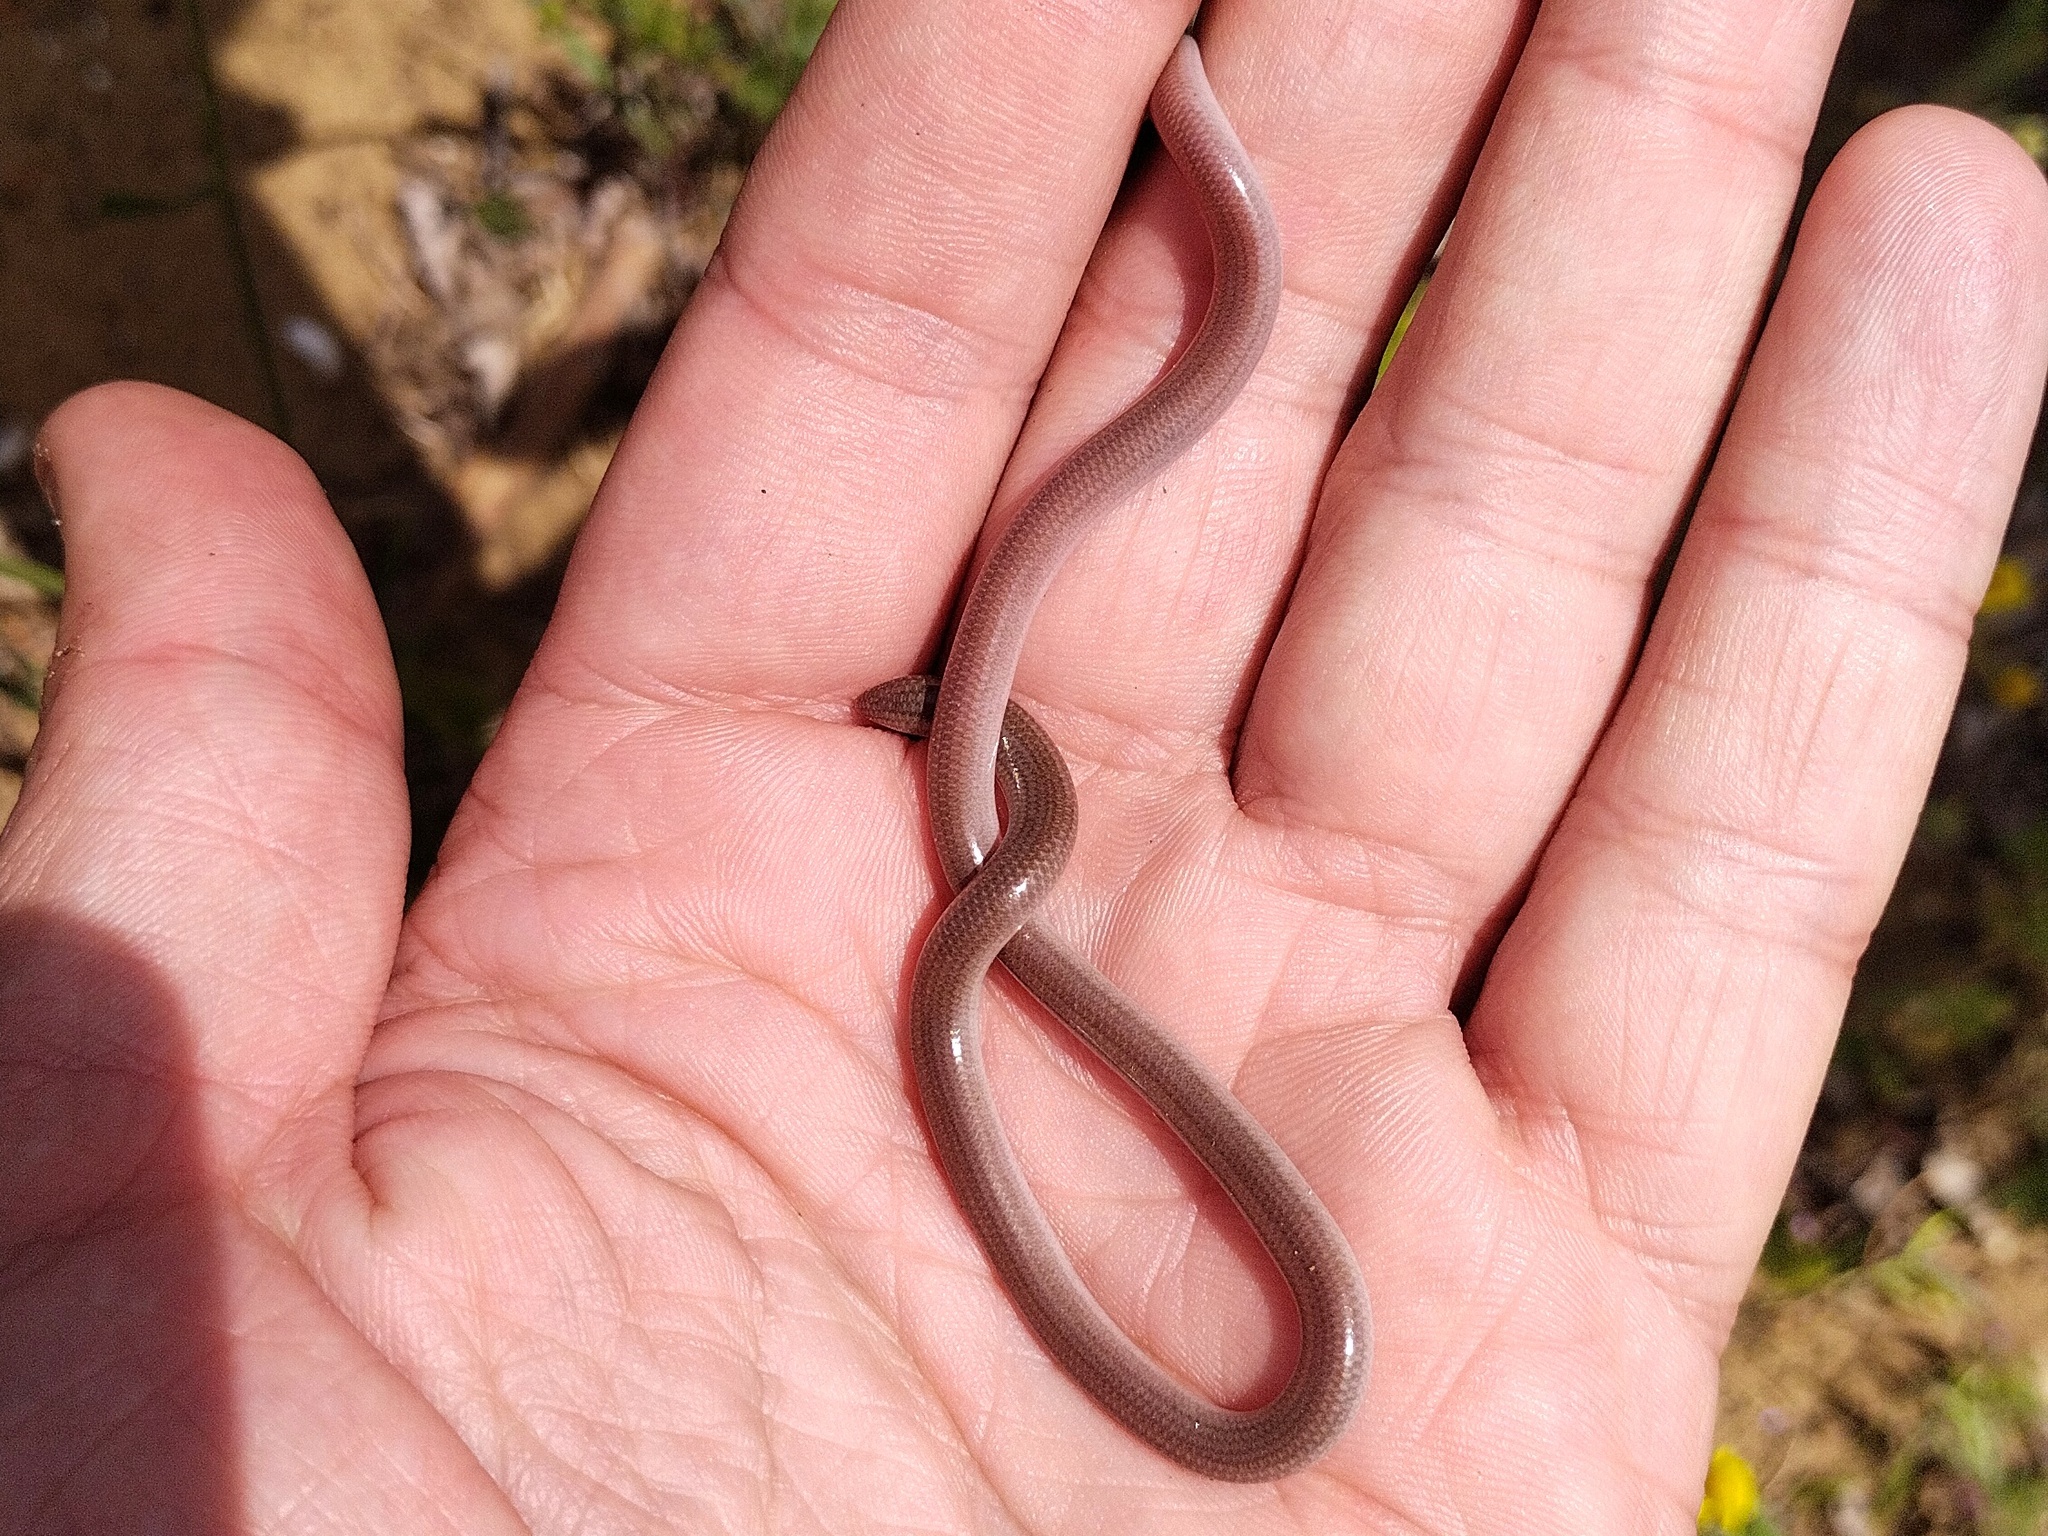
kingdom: Animalia
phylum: Chordata
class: Squamata
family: Typhlopidae
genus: Xerotyphlops
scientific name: Xerotyphlops vermicularis
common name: Eurasian blind snake
